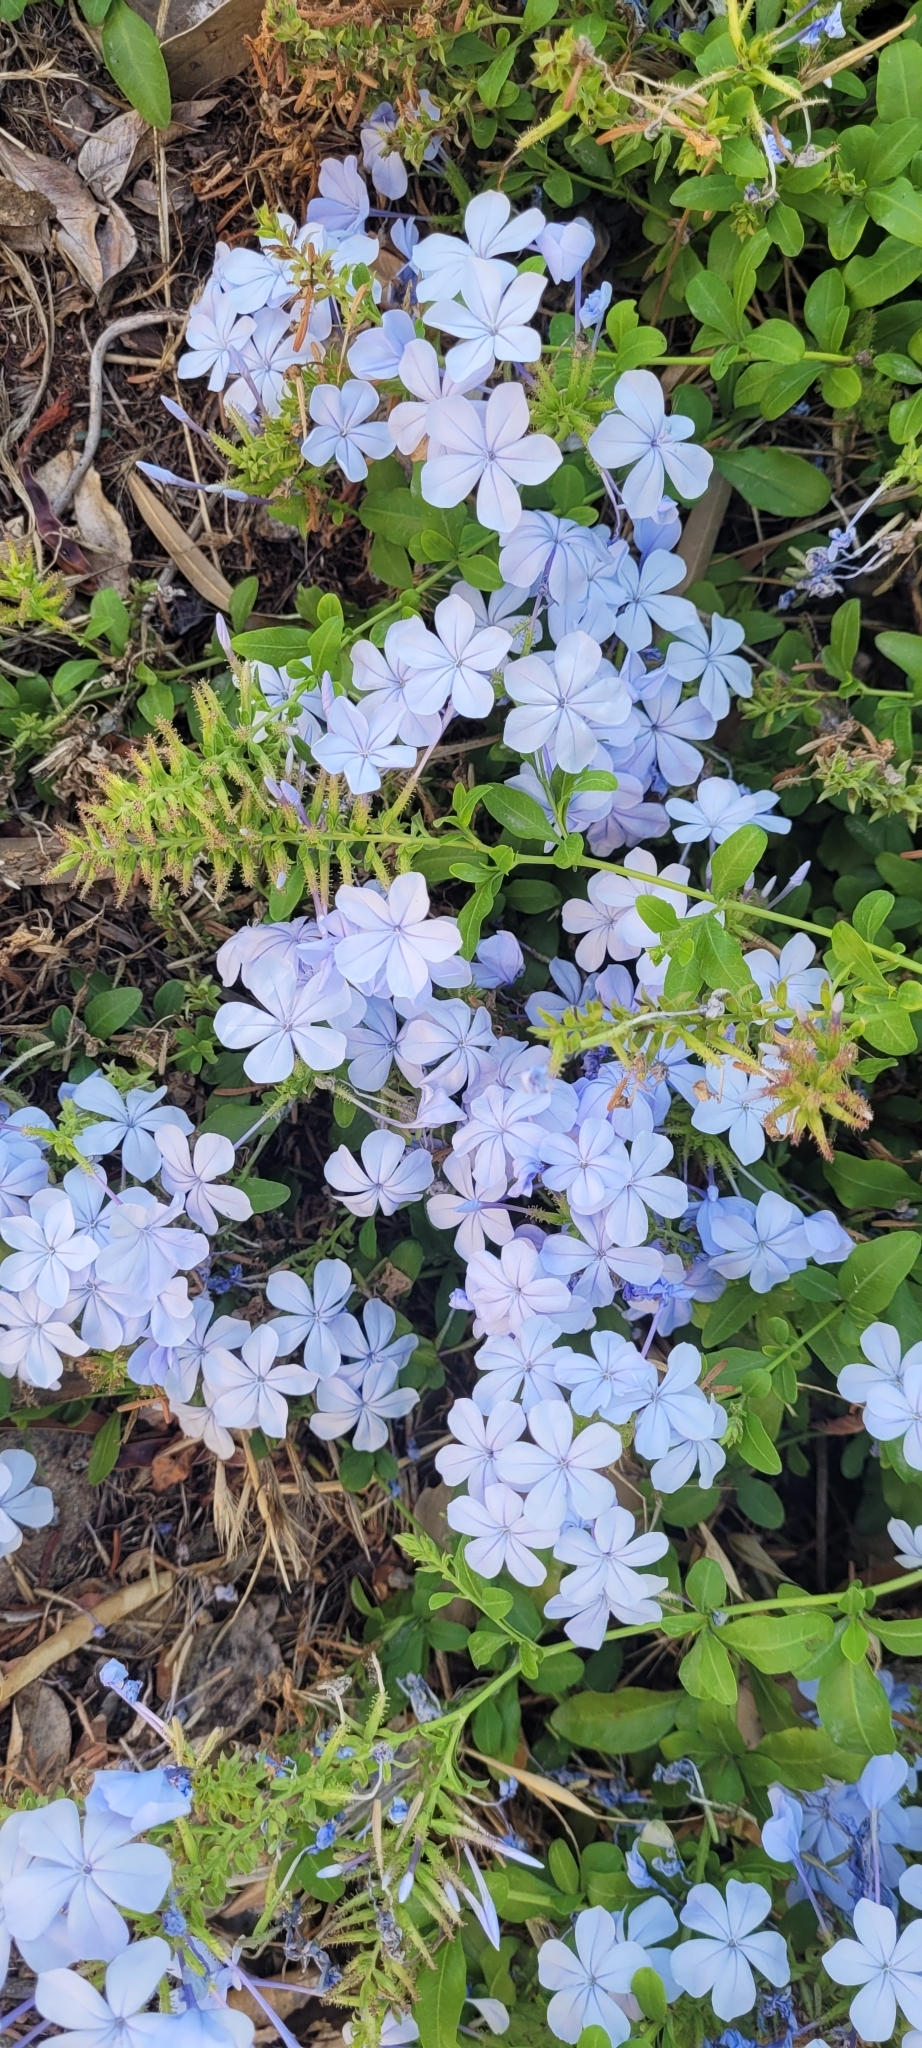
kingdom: Plantae
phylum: Tracheophyta
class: Magnoliopsida
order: Caryophyllales
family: Plumbaginaceae
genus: Plumbago
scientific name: Plumbago auriculata
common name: Cape leadwort
